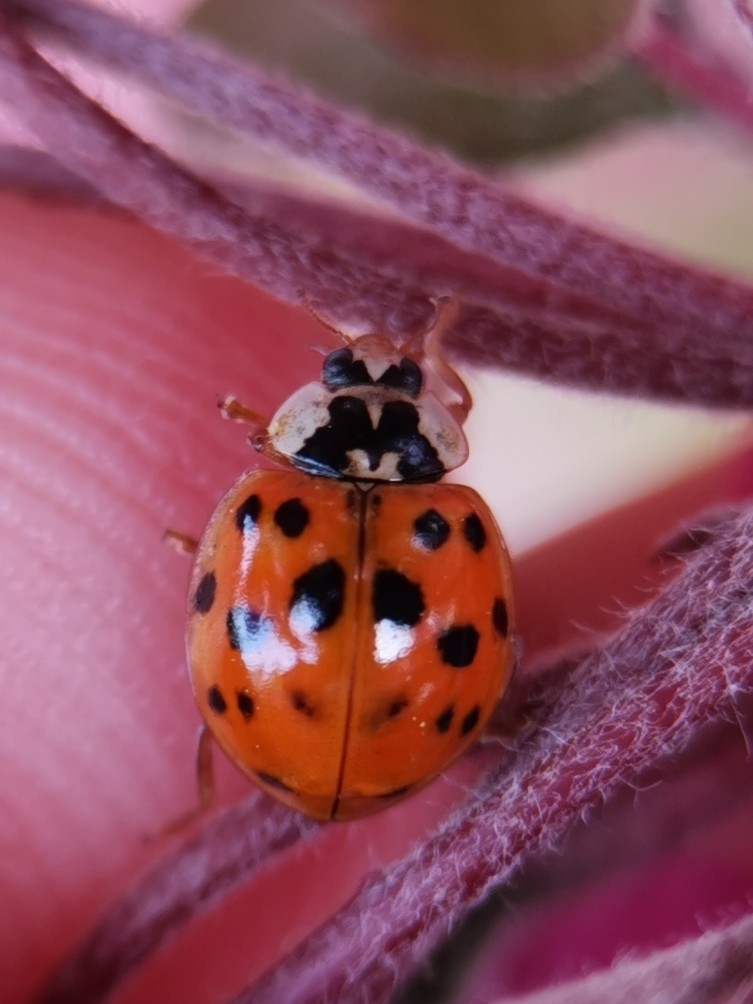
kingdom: Animalia
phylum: Arthropoda
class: Insecta
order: Coleoptera
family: Coccinellidae
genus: Harmonia
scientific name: Harmonia axyridis
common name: Harlequin ladybird
